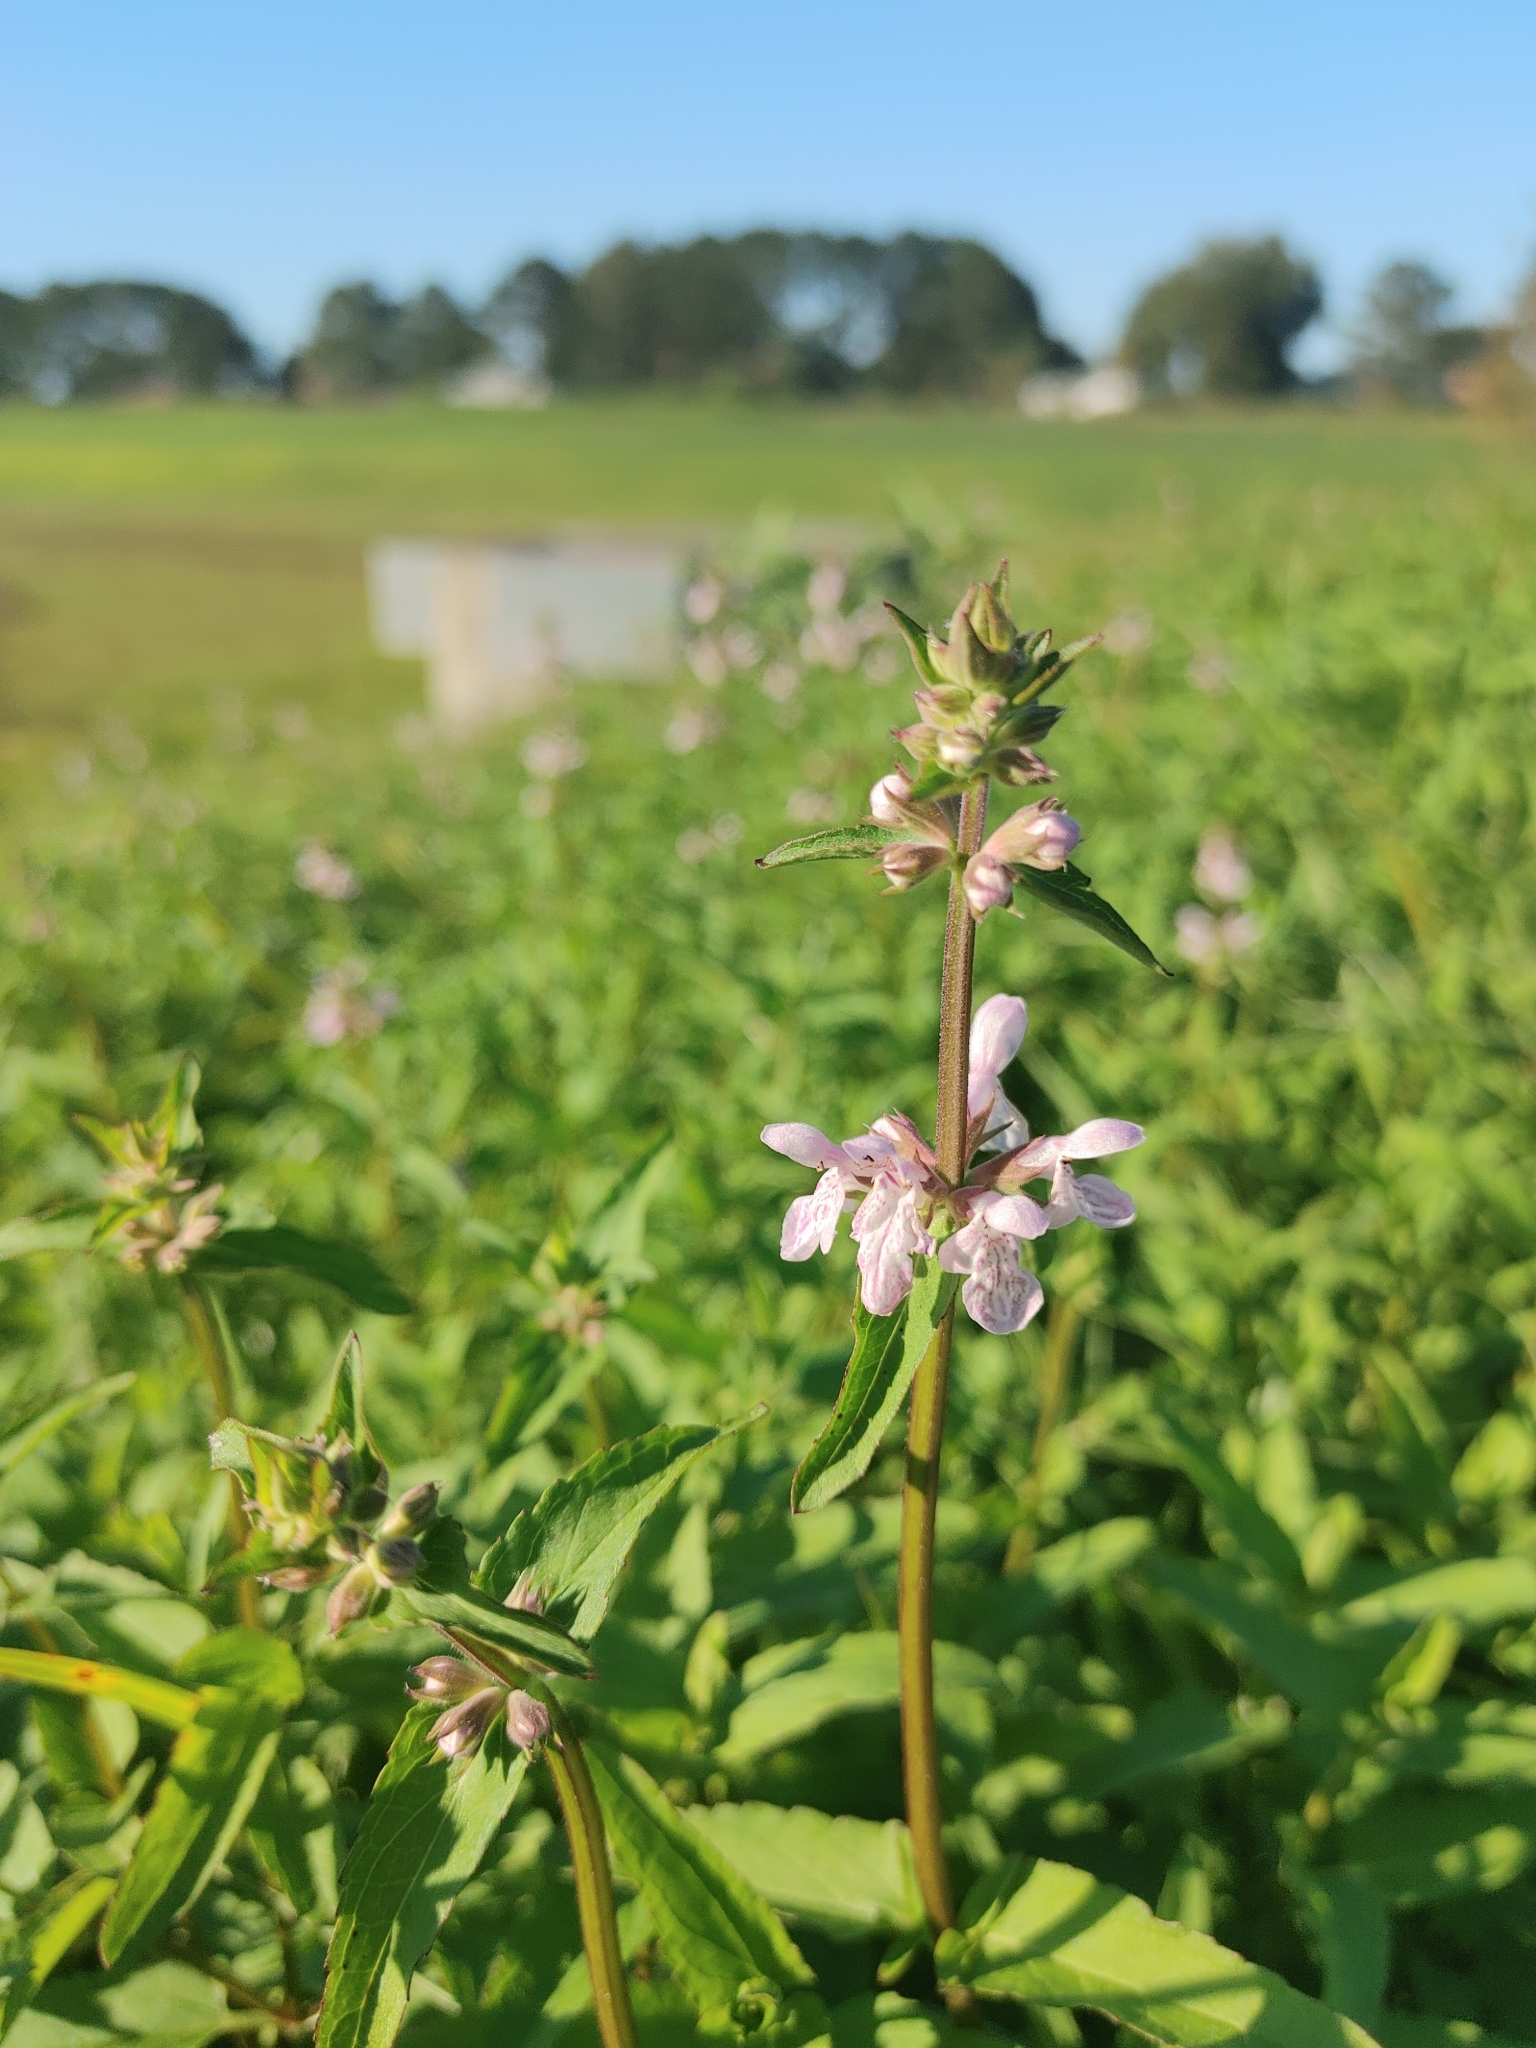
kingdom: Plantae
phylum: Tracheophyta
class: Magnoliopsida
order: Lamiales
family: Lamiaceae
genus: Stachys
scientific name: Stachys floridana
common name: Florida betony
